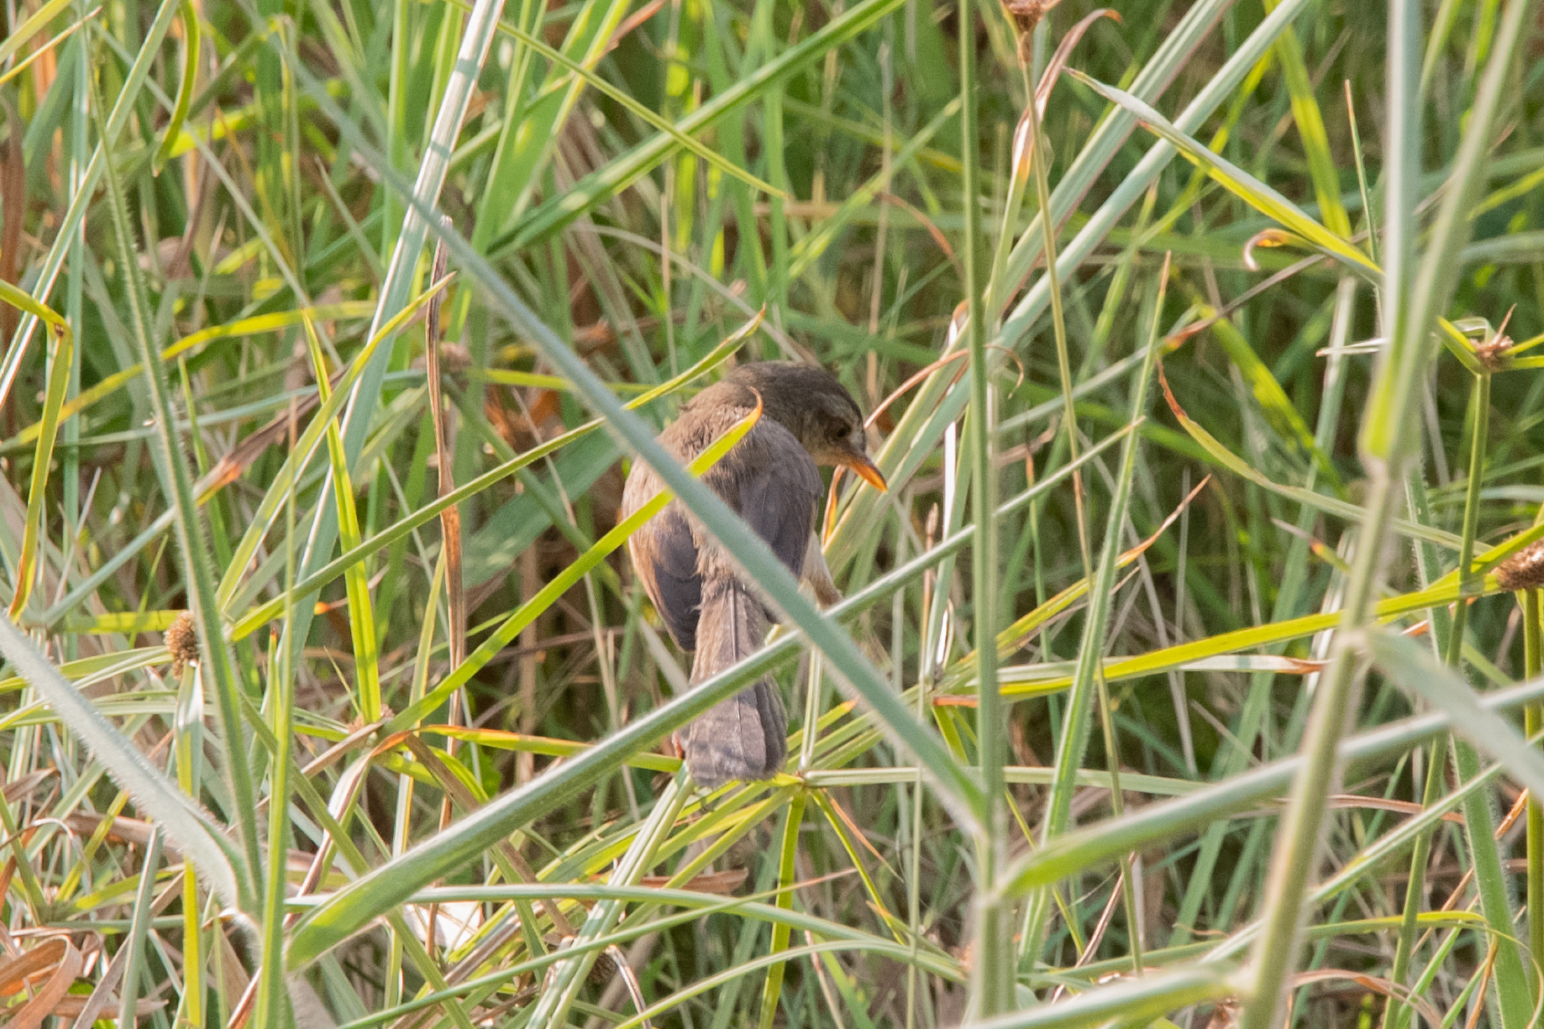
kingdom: Animalia
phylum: Chordata
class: Aves
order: Passeriformes
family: Cisticolidae
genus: Prinia
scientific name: Prinia inornata
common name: Plain prinia
